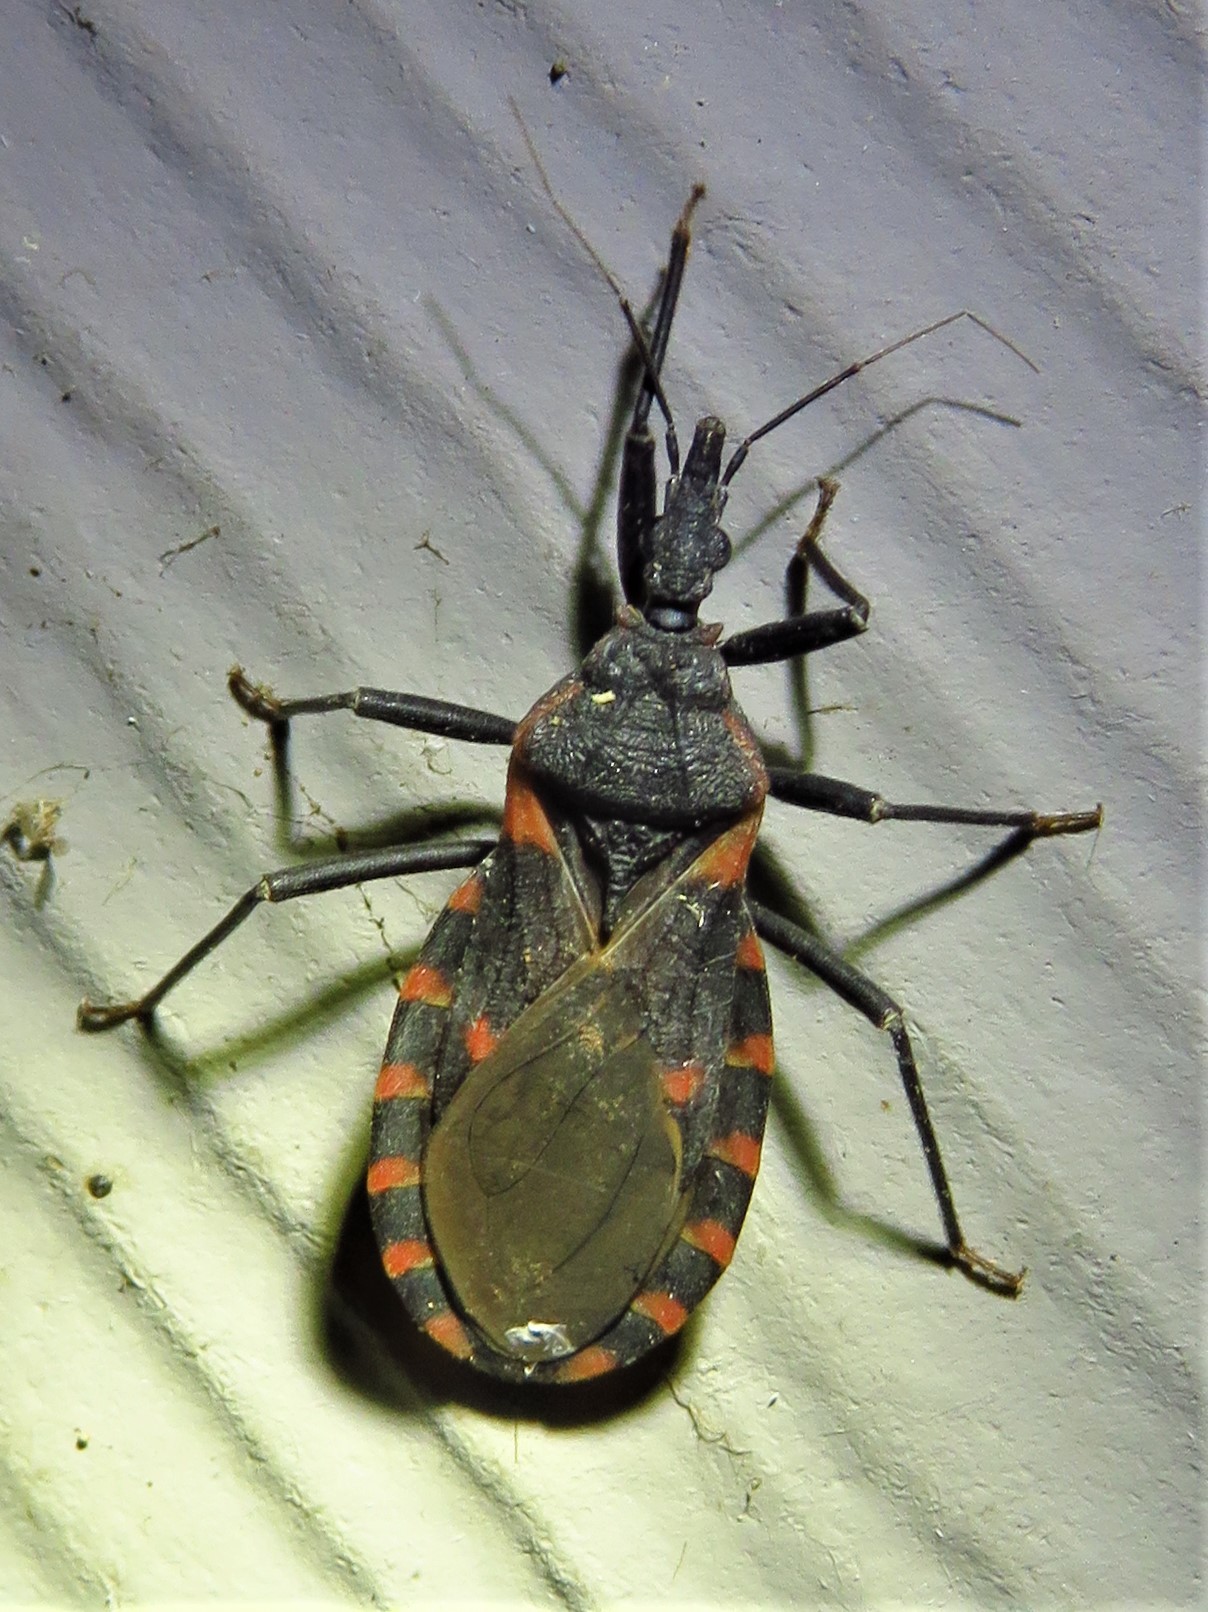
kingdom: Animalia
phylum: Arthropoda
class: Insecta
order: Hemiptera
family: Reduviidae
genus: Triatoma
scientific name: Triatoma sanguisuga
